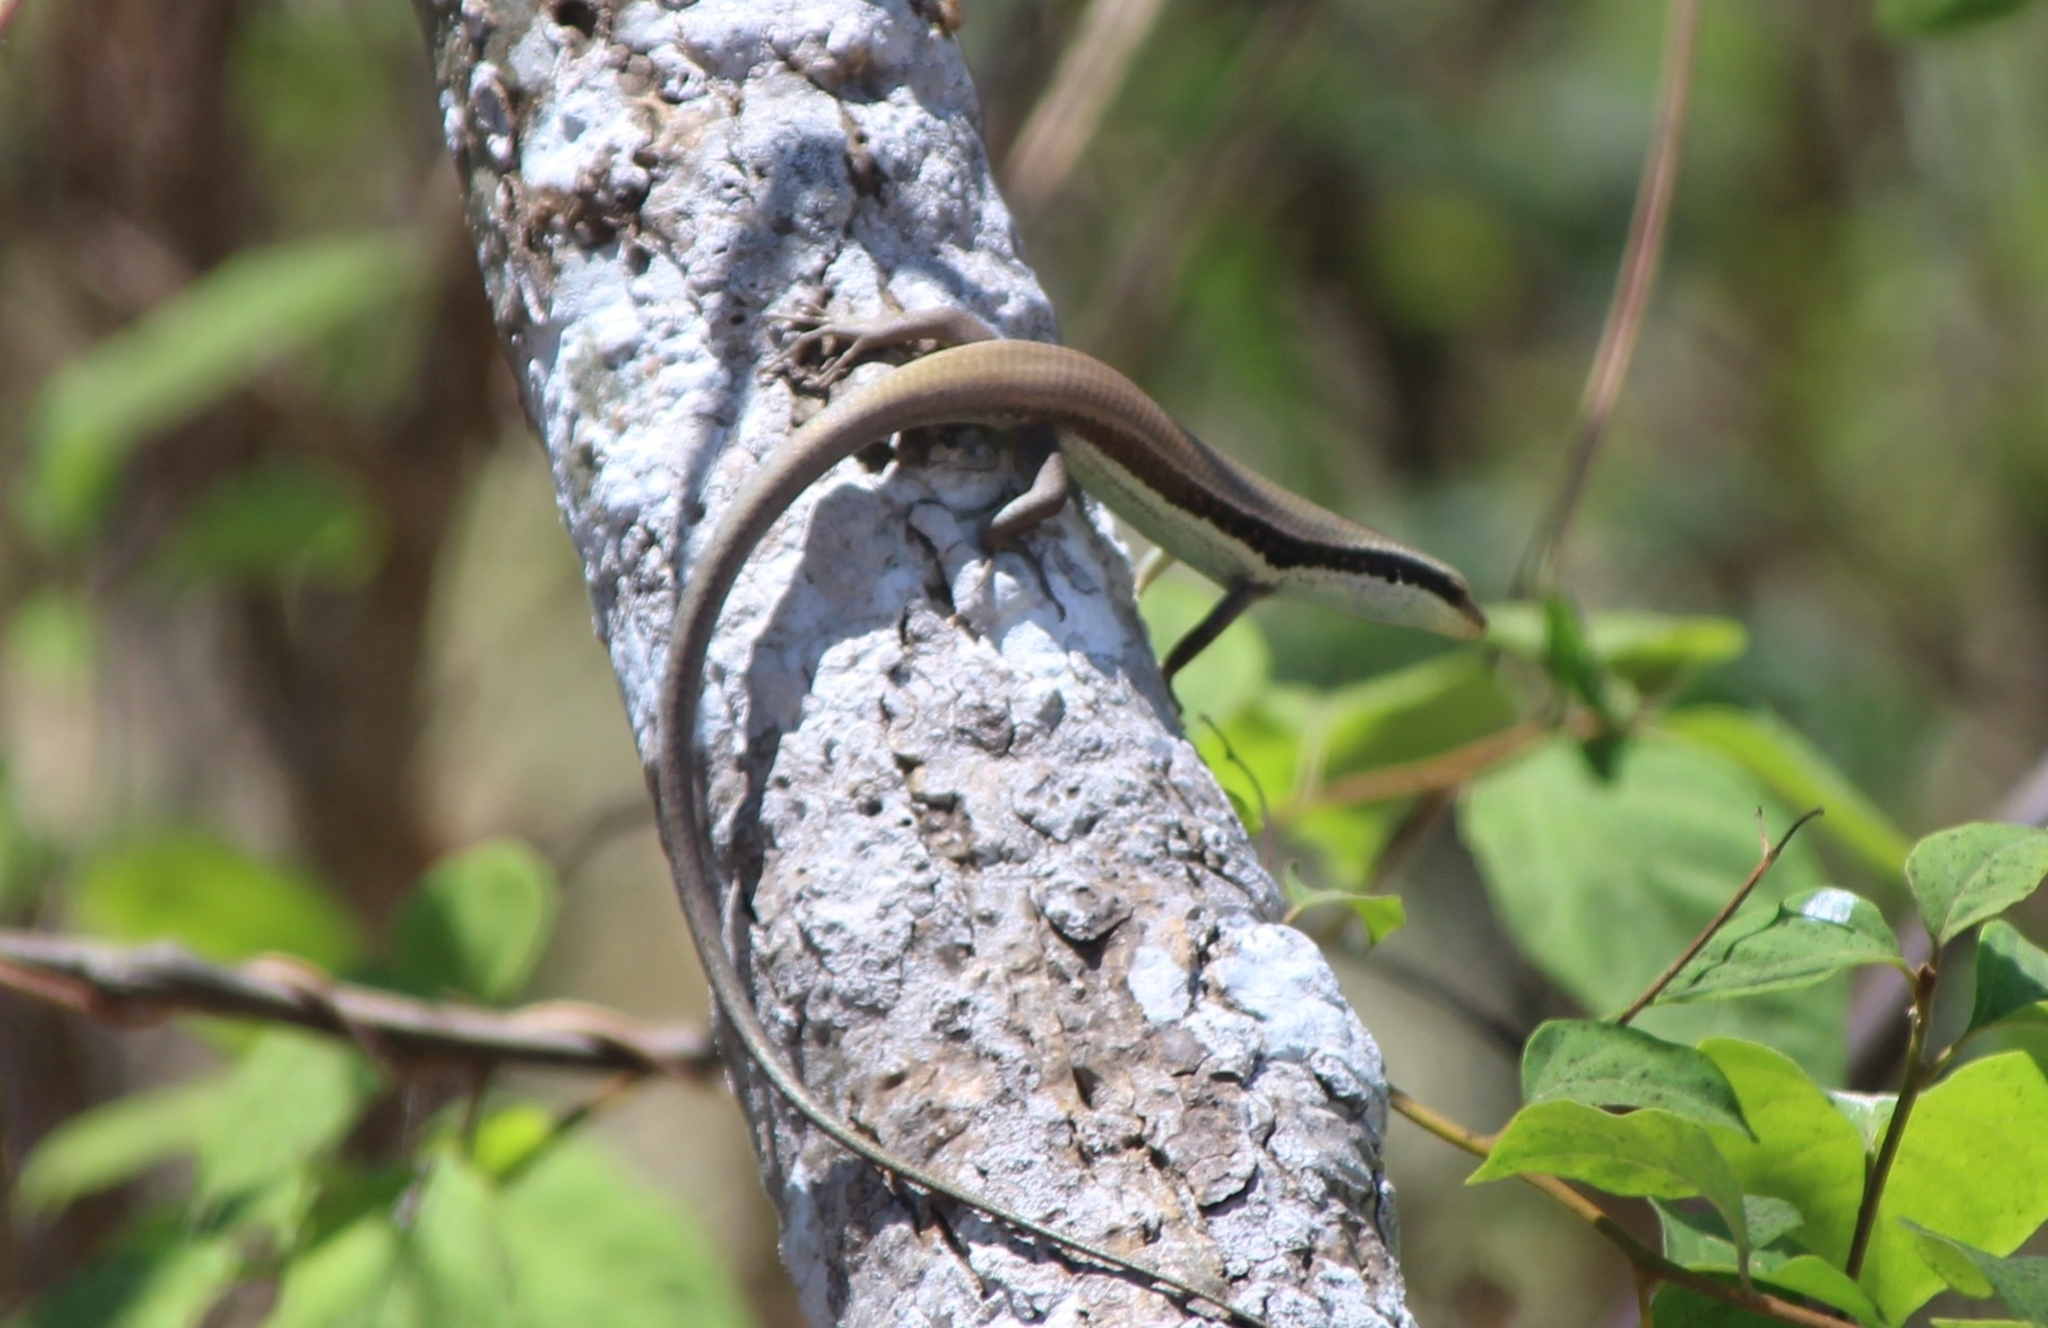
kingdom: Animalia
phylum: Chordata
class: Squamata
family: Scincidae
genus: Eutropis
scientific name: Eutropis longicaudata
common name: Long-tailed sun skink
